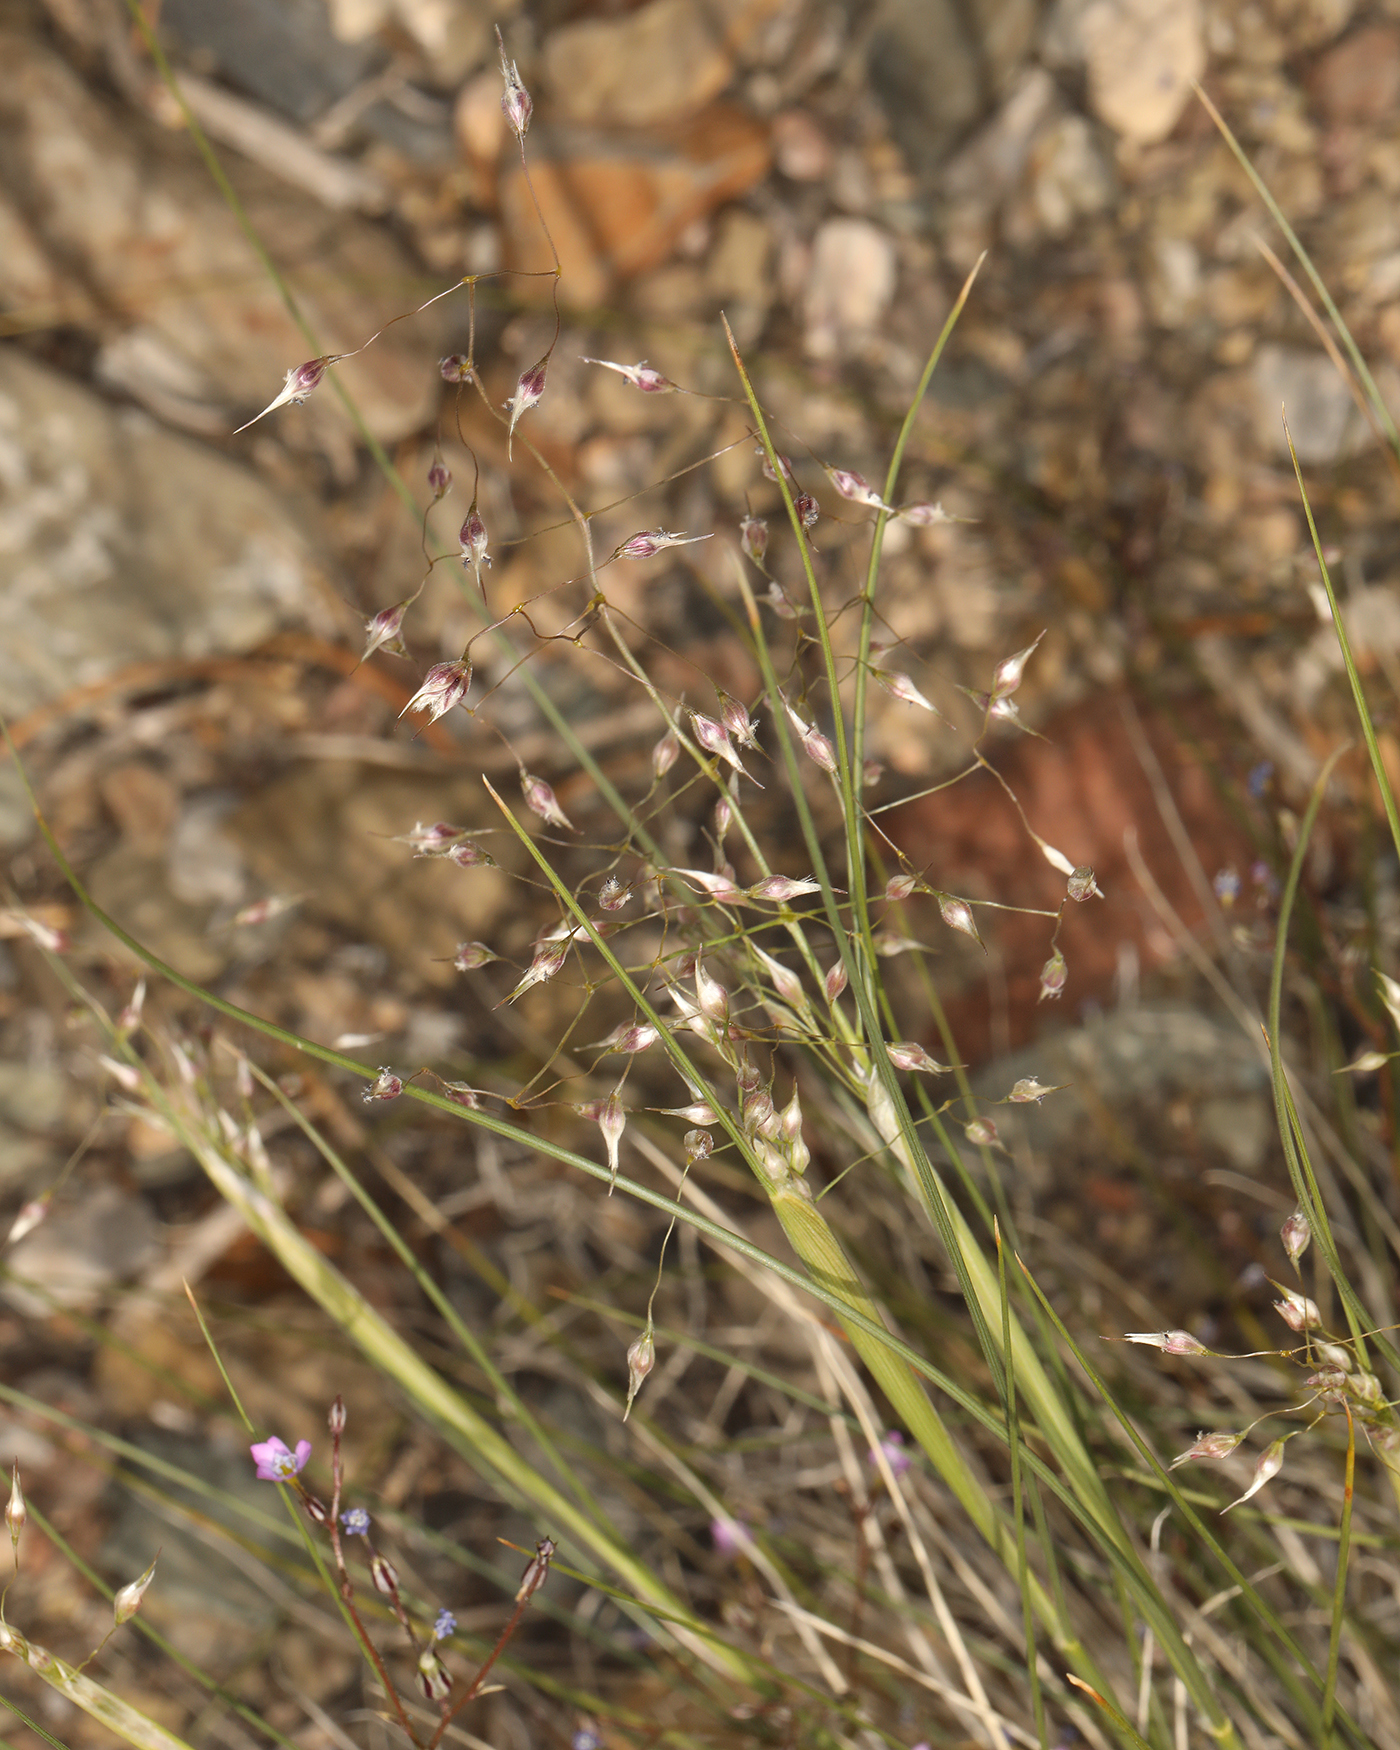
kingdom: Plantae
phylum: Tracheophyta
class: Liliopsida
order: Poales
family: Poaceae
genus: Eriocoma
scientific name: Eriocoma hymenoides
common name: Indian mountain ricegrass
